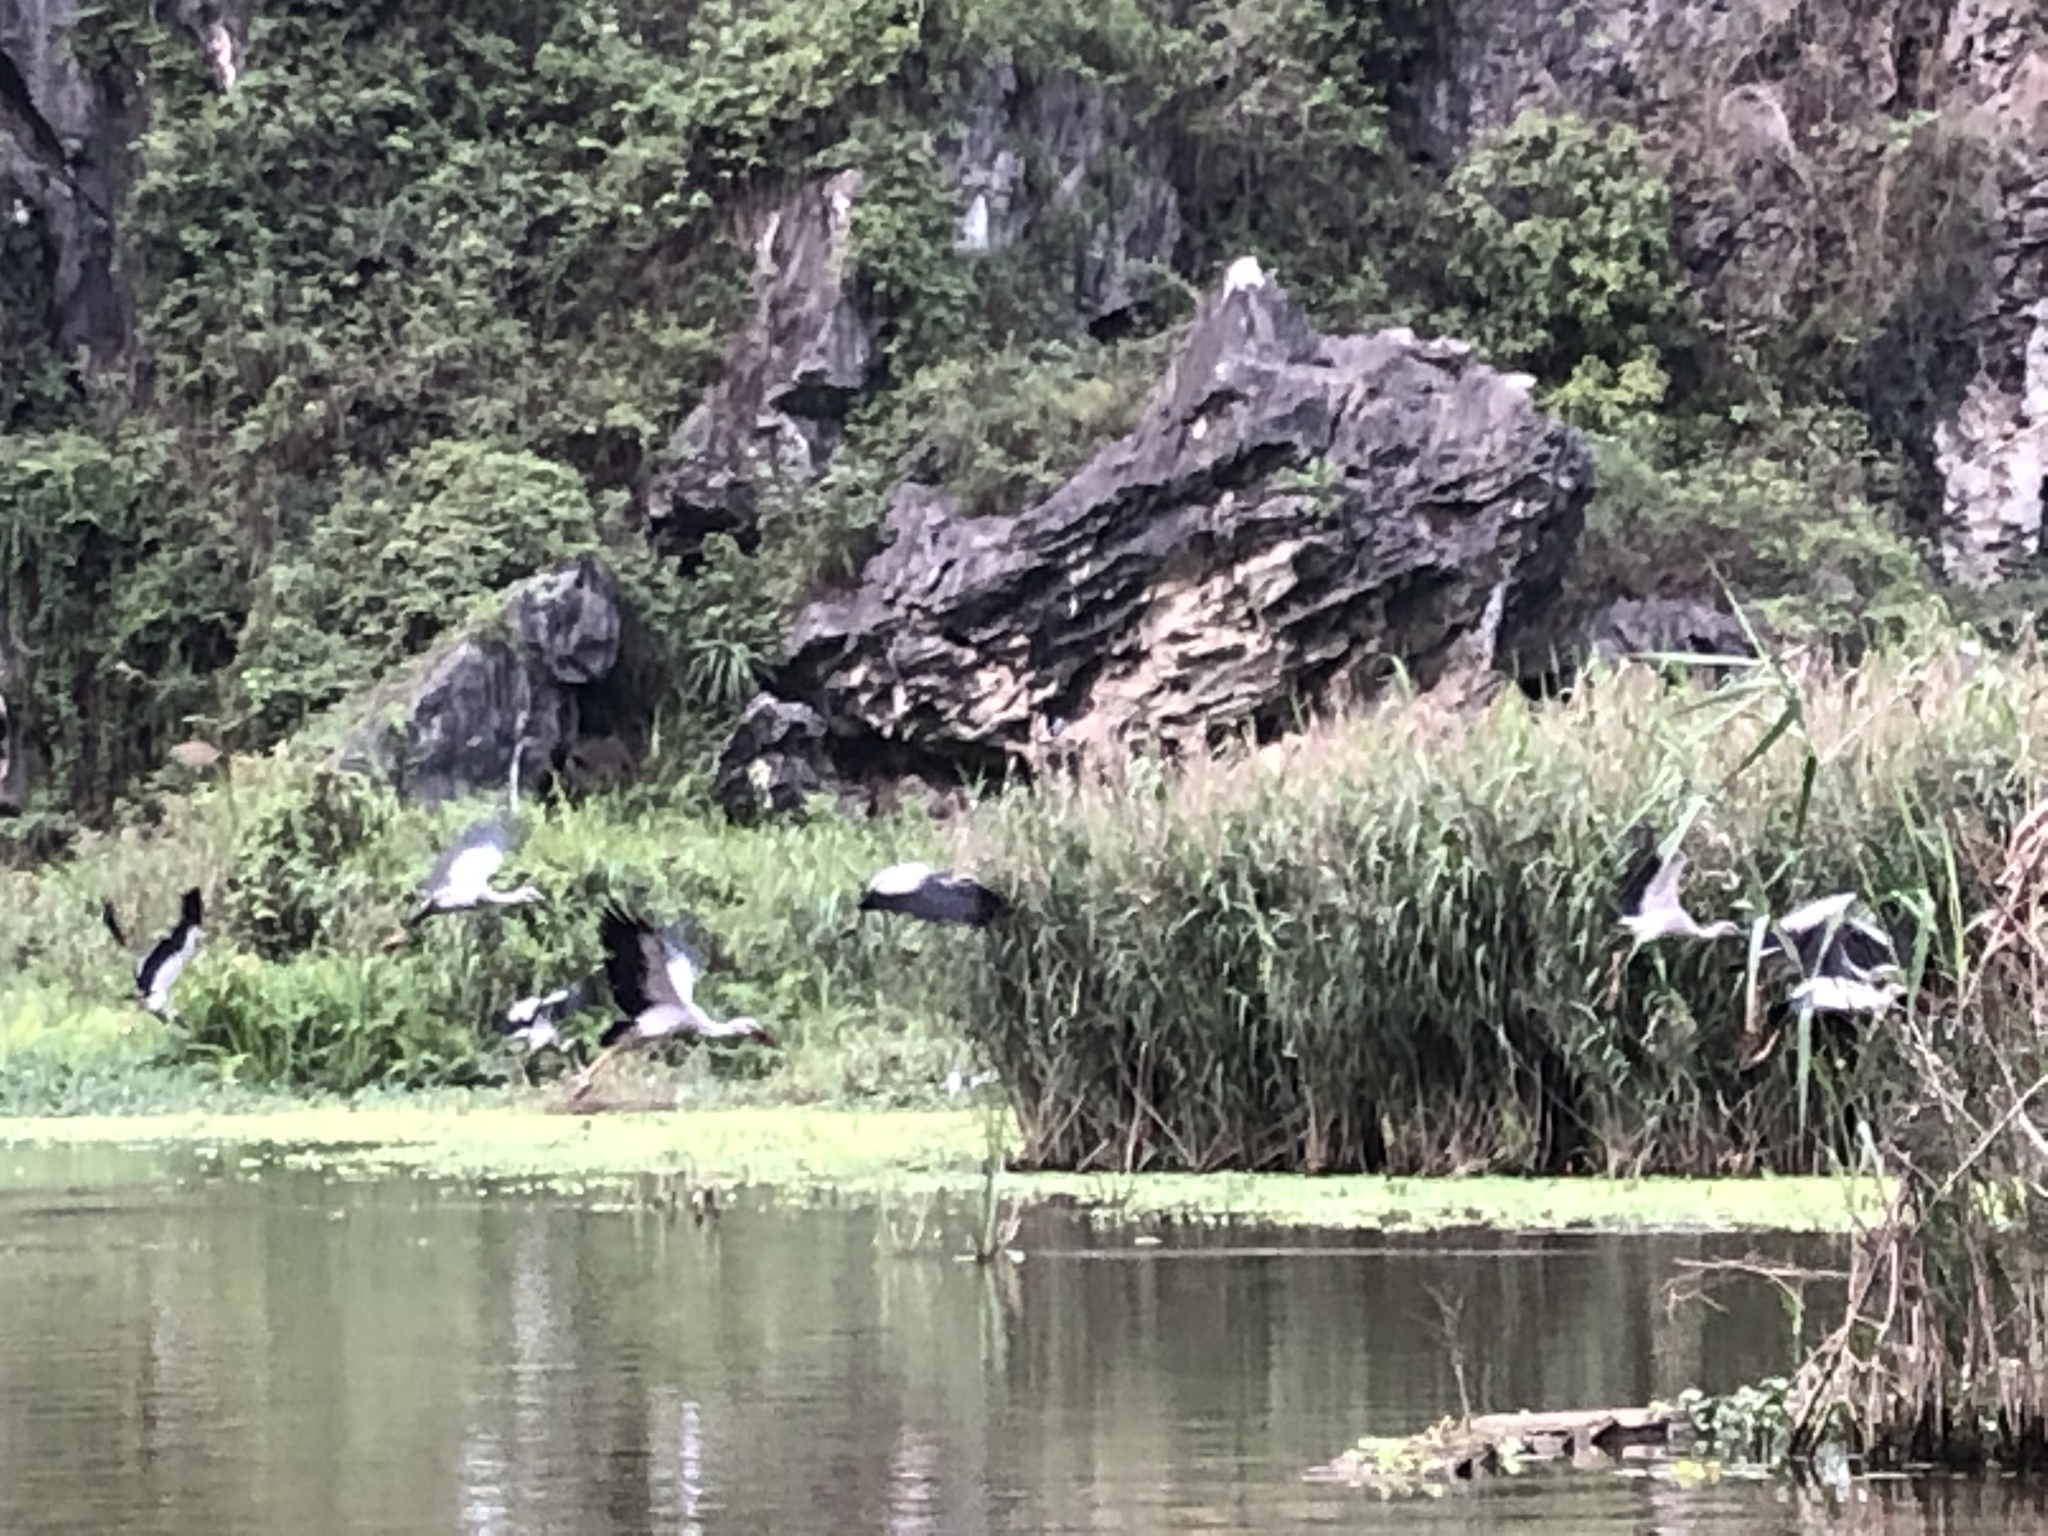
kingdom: Animalia
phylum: Chordata
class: Aves
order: Ciconiiformes
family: Ciconiidae
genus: Anastomus
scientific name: Anastomus oscitans
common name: Asian openbill
